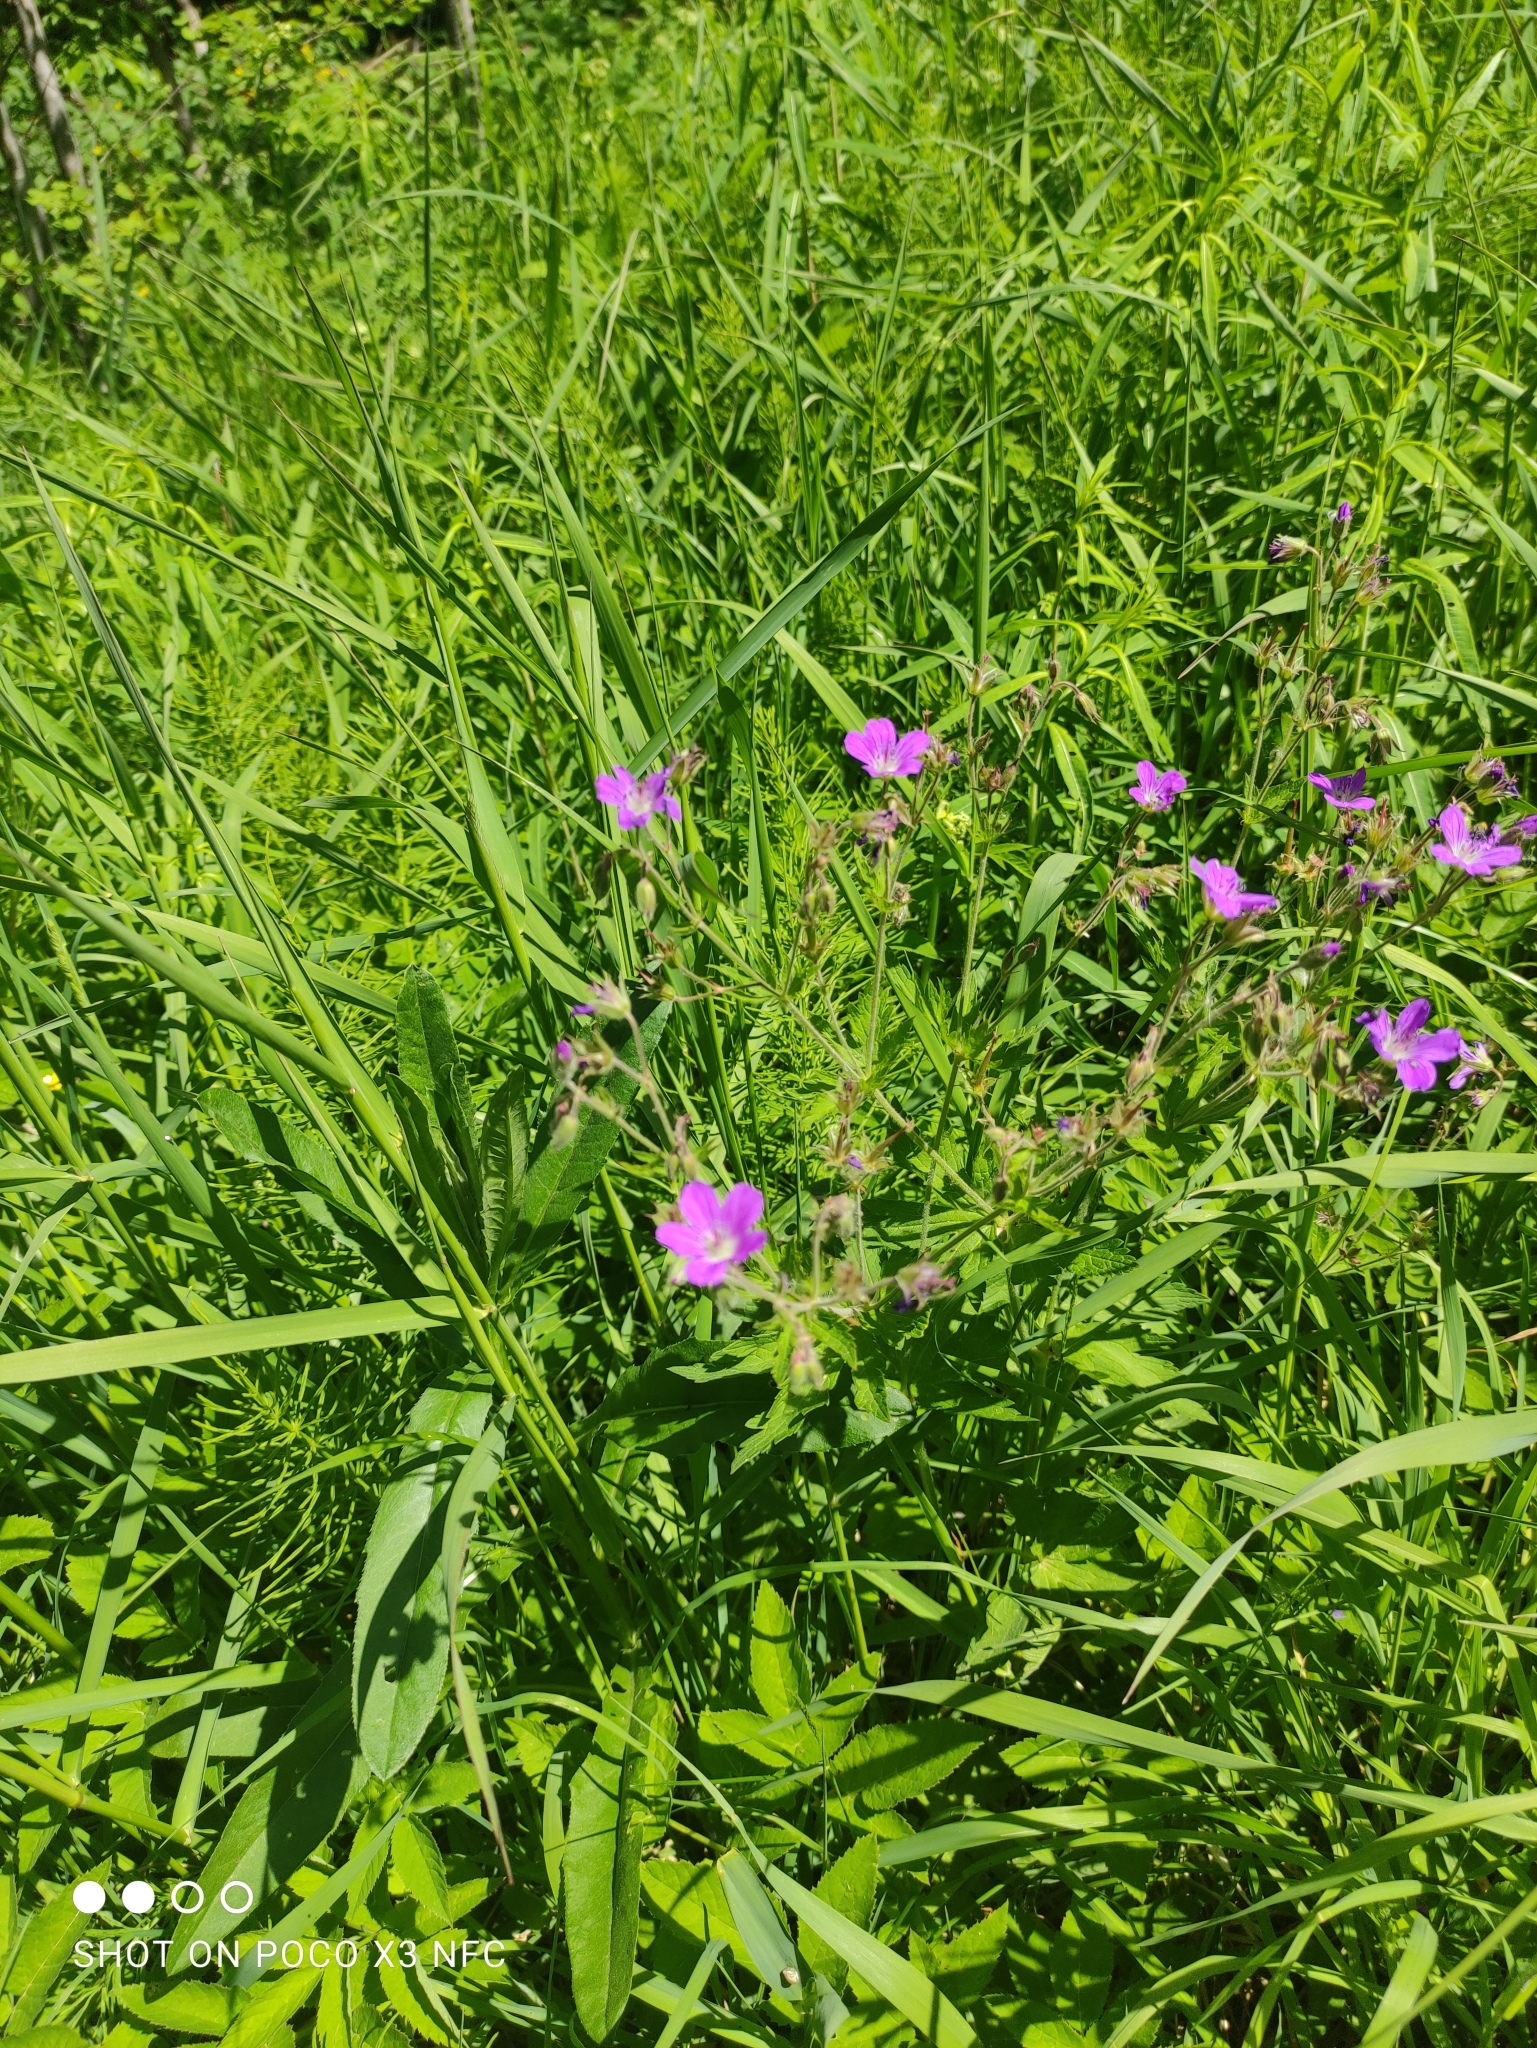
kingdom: Plantae
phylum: Tracheophyta
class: Magnoliopsida
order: Geraniales
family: Geraniaceae
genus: Geranium
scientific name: Geranium sylvaticum
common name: Wood crane's-bill
